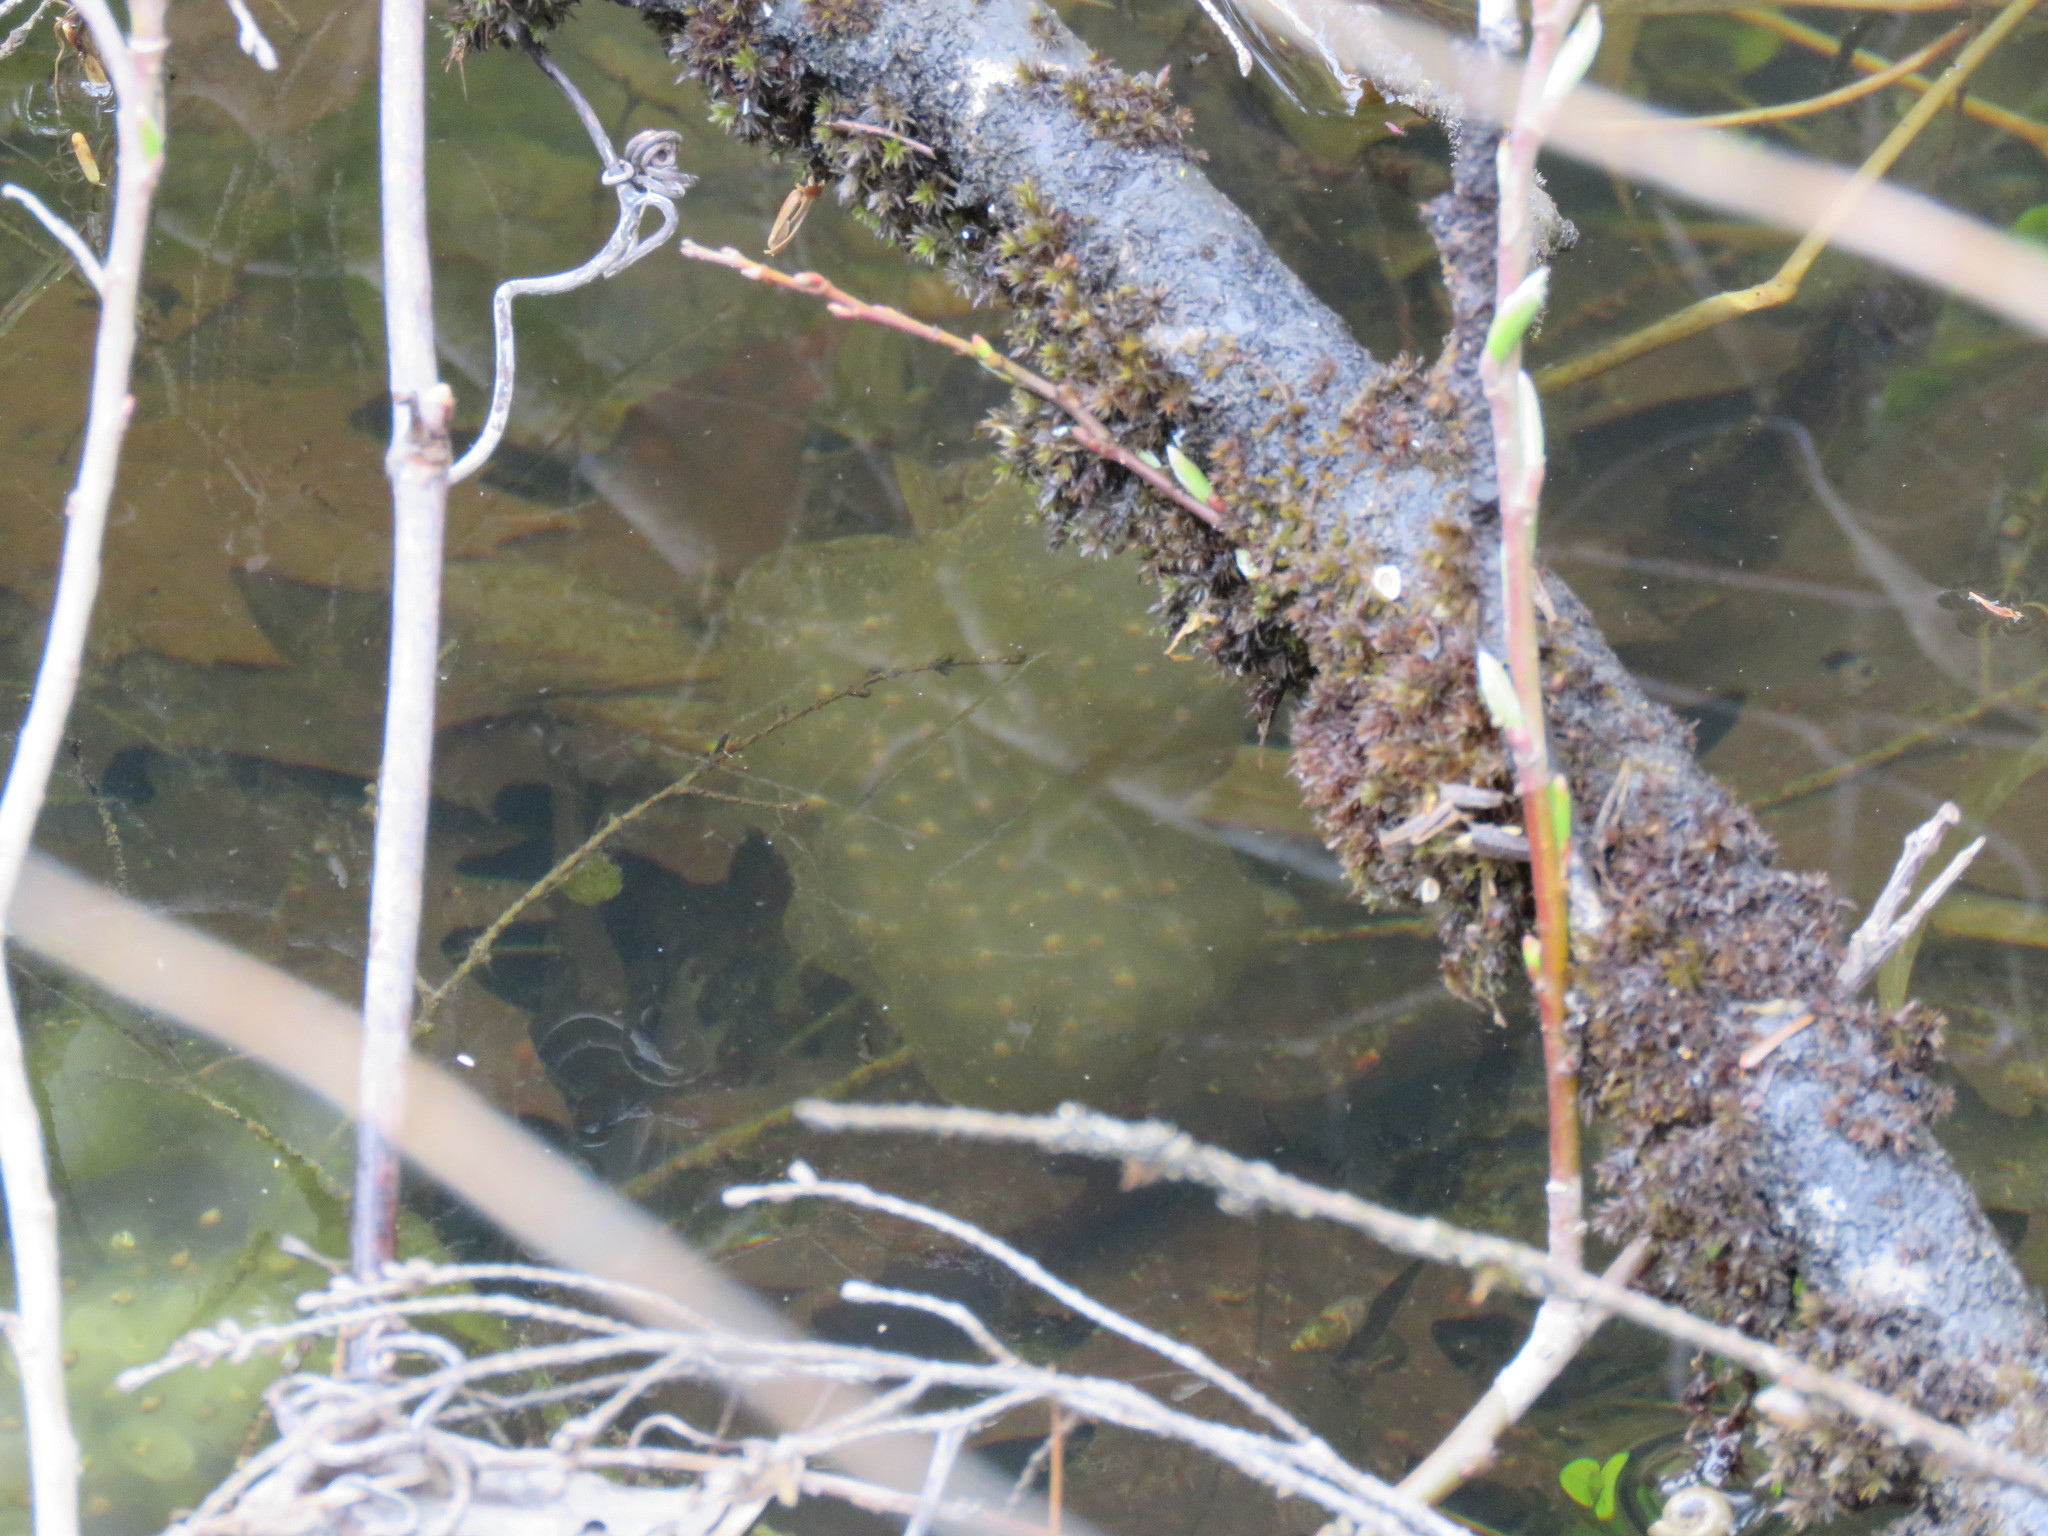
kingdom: Animalia
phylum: Chordata
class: Amphibia
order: Caudata
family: Ambystomatidae
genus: Ambystoma
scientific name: Ambystoma maculatum
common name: Spotted salamander
